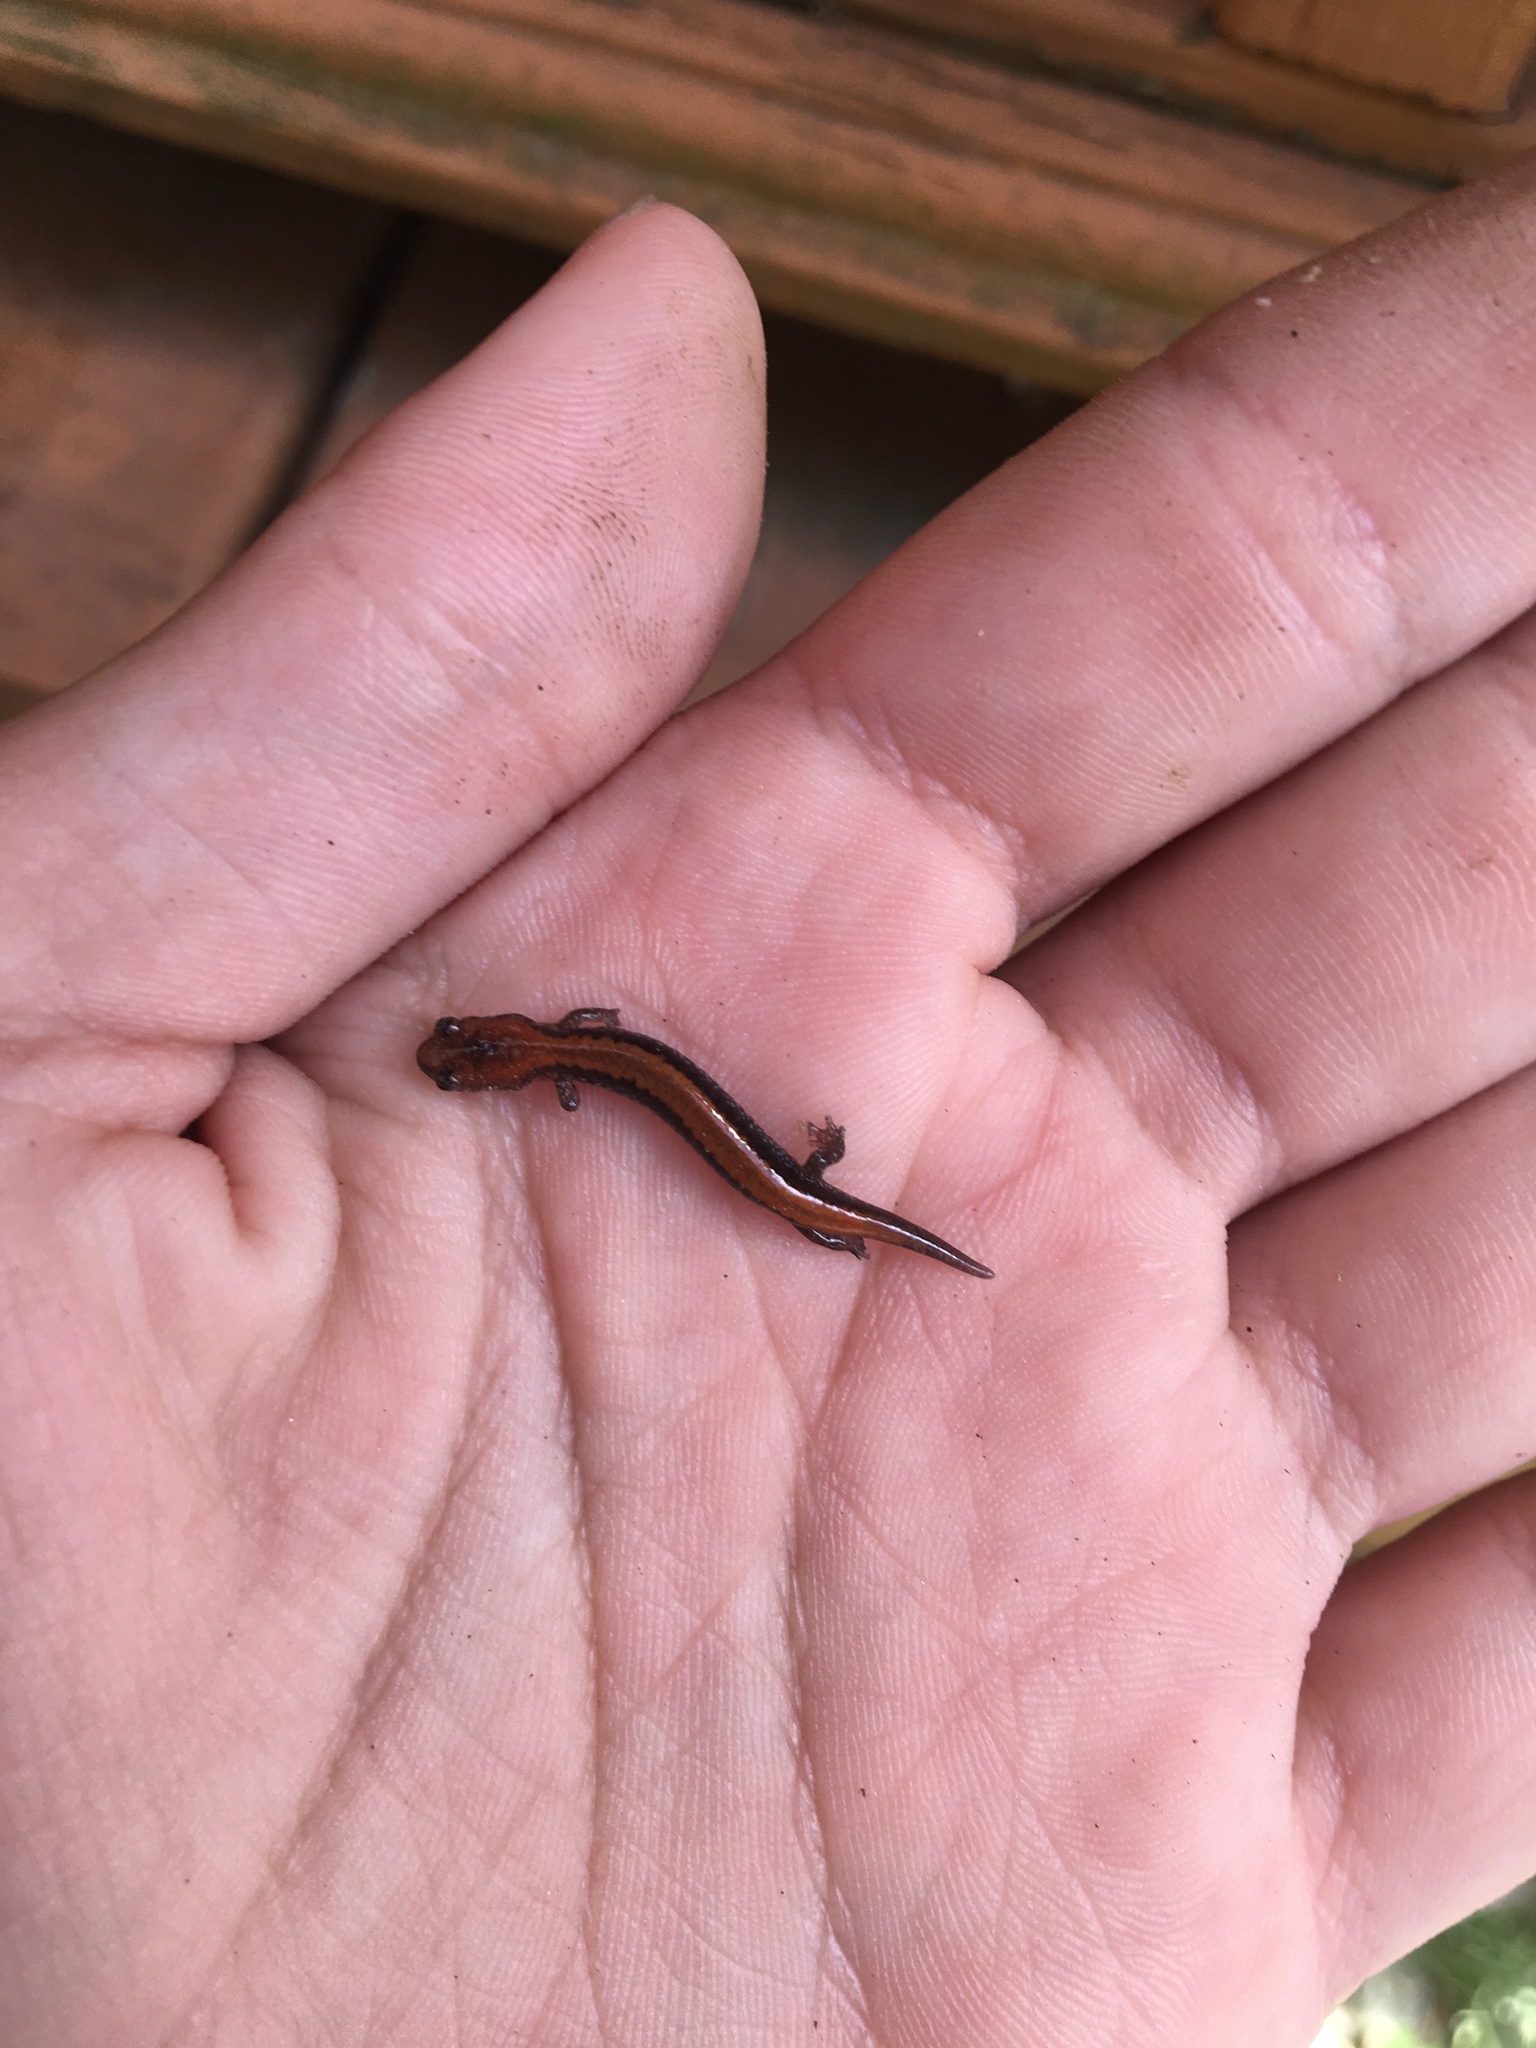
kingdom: Animalia
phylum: Chordata
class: Amphibia
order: Caudata
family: Plethodontidae
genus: Plethodon
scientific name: Plethodon cinereus
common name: Redback salamander
